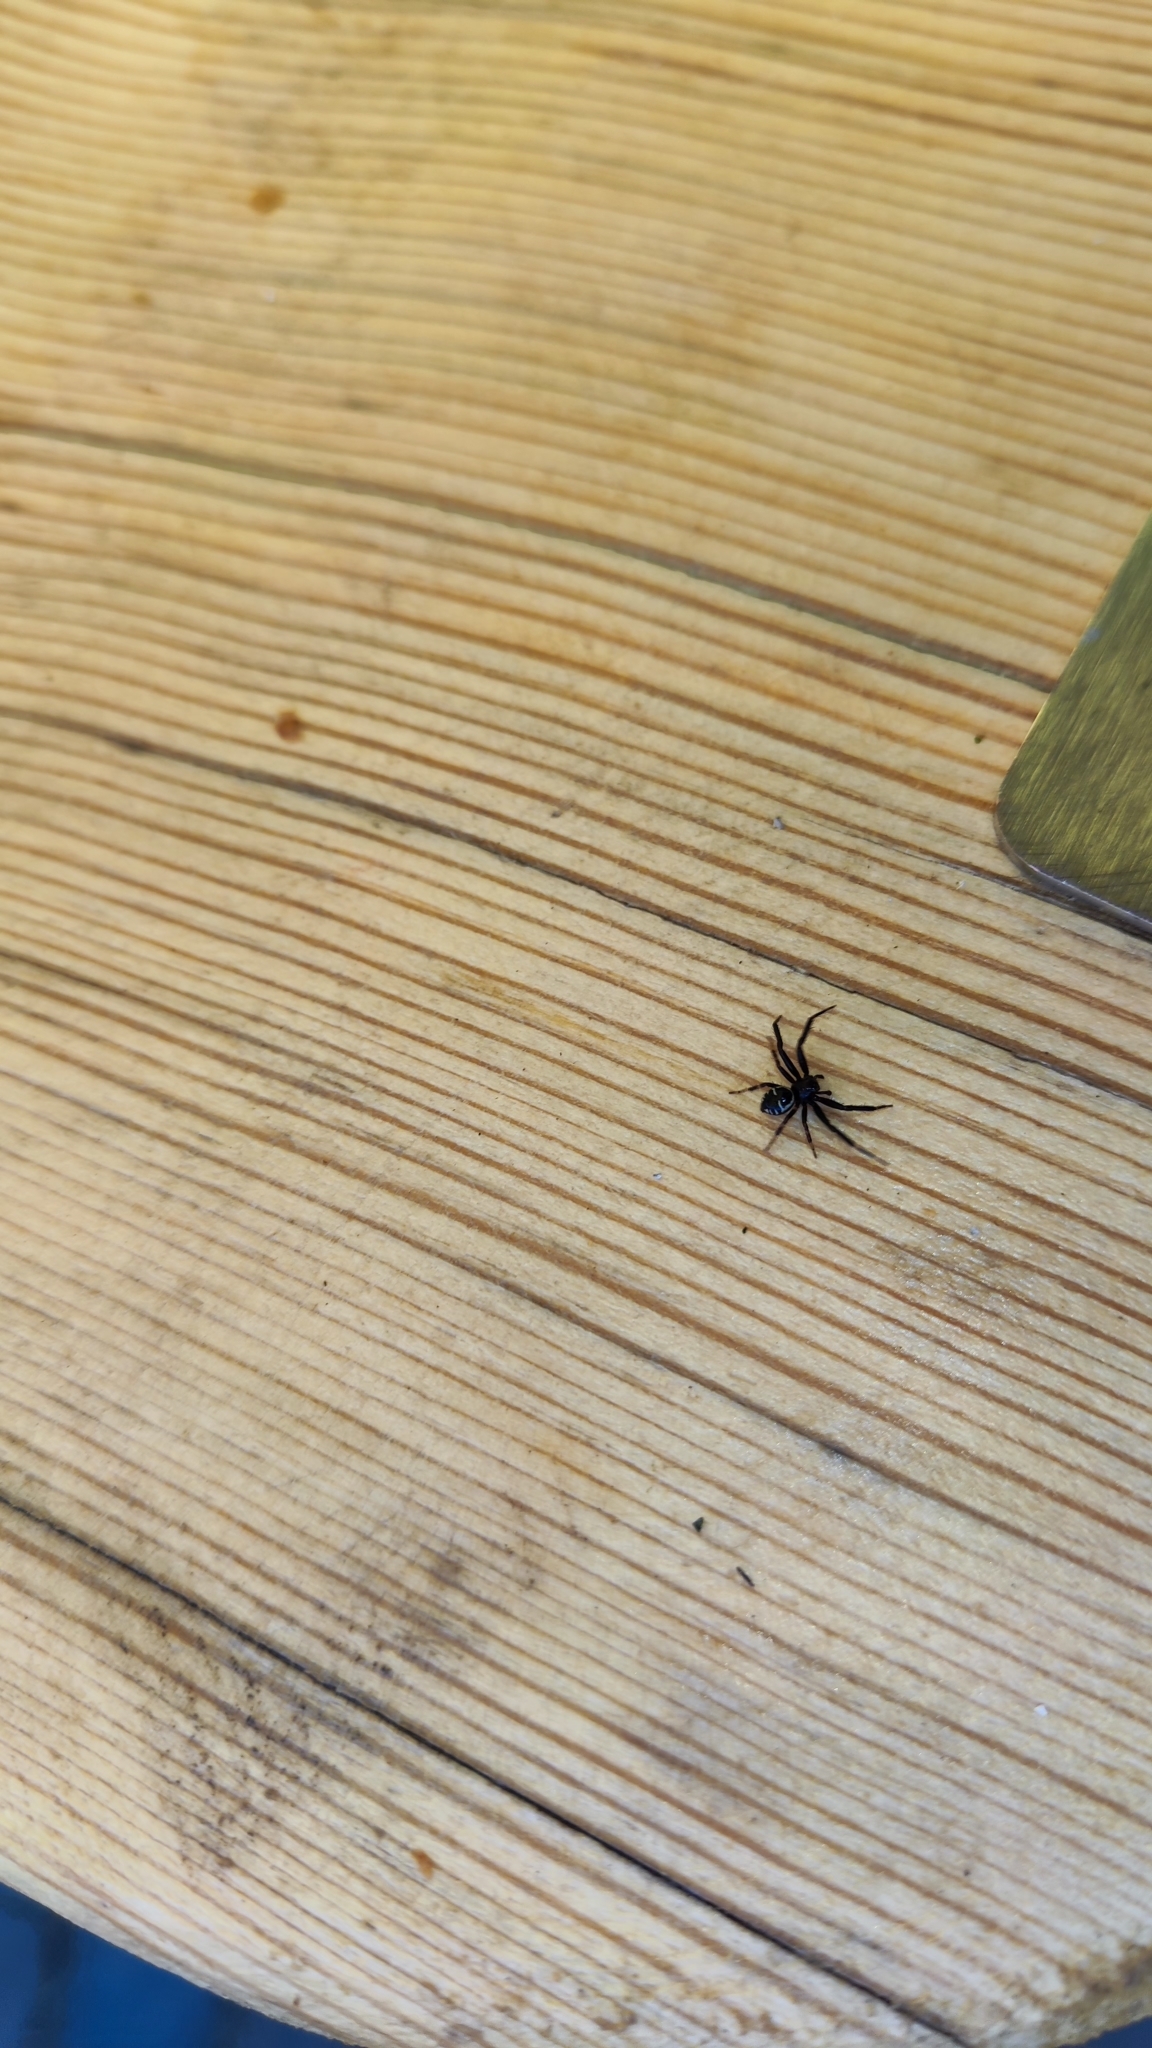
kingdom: Animalia
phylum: Arthropoda
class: Arachnida
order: Araneae
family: Thomisidae
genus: Synema
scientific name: Synema globosum
